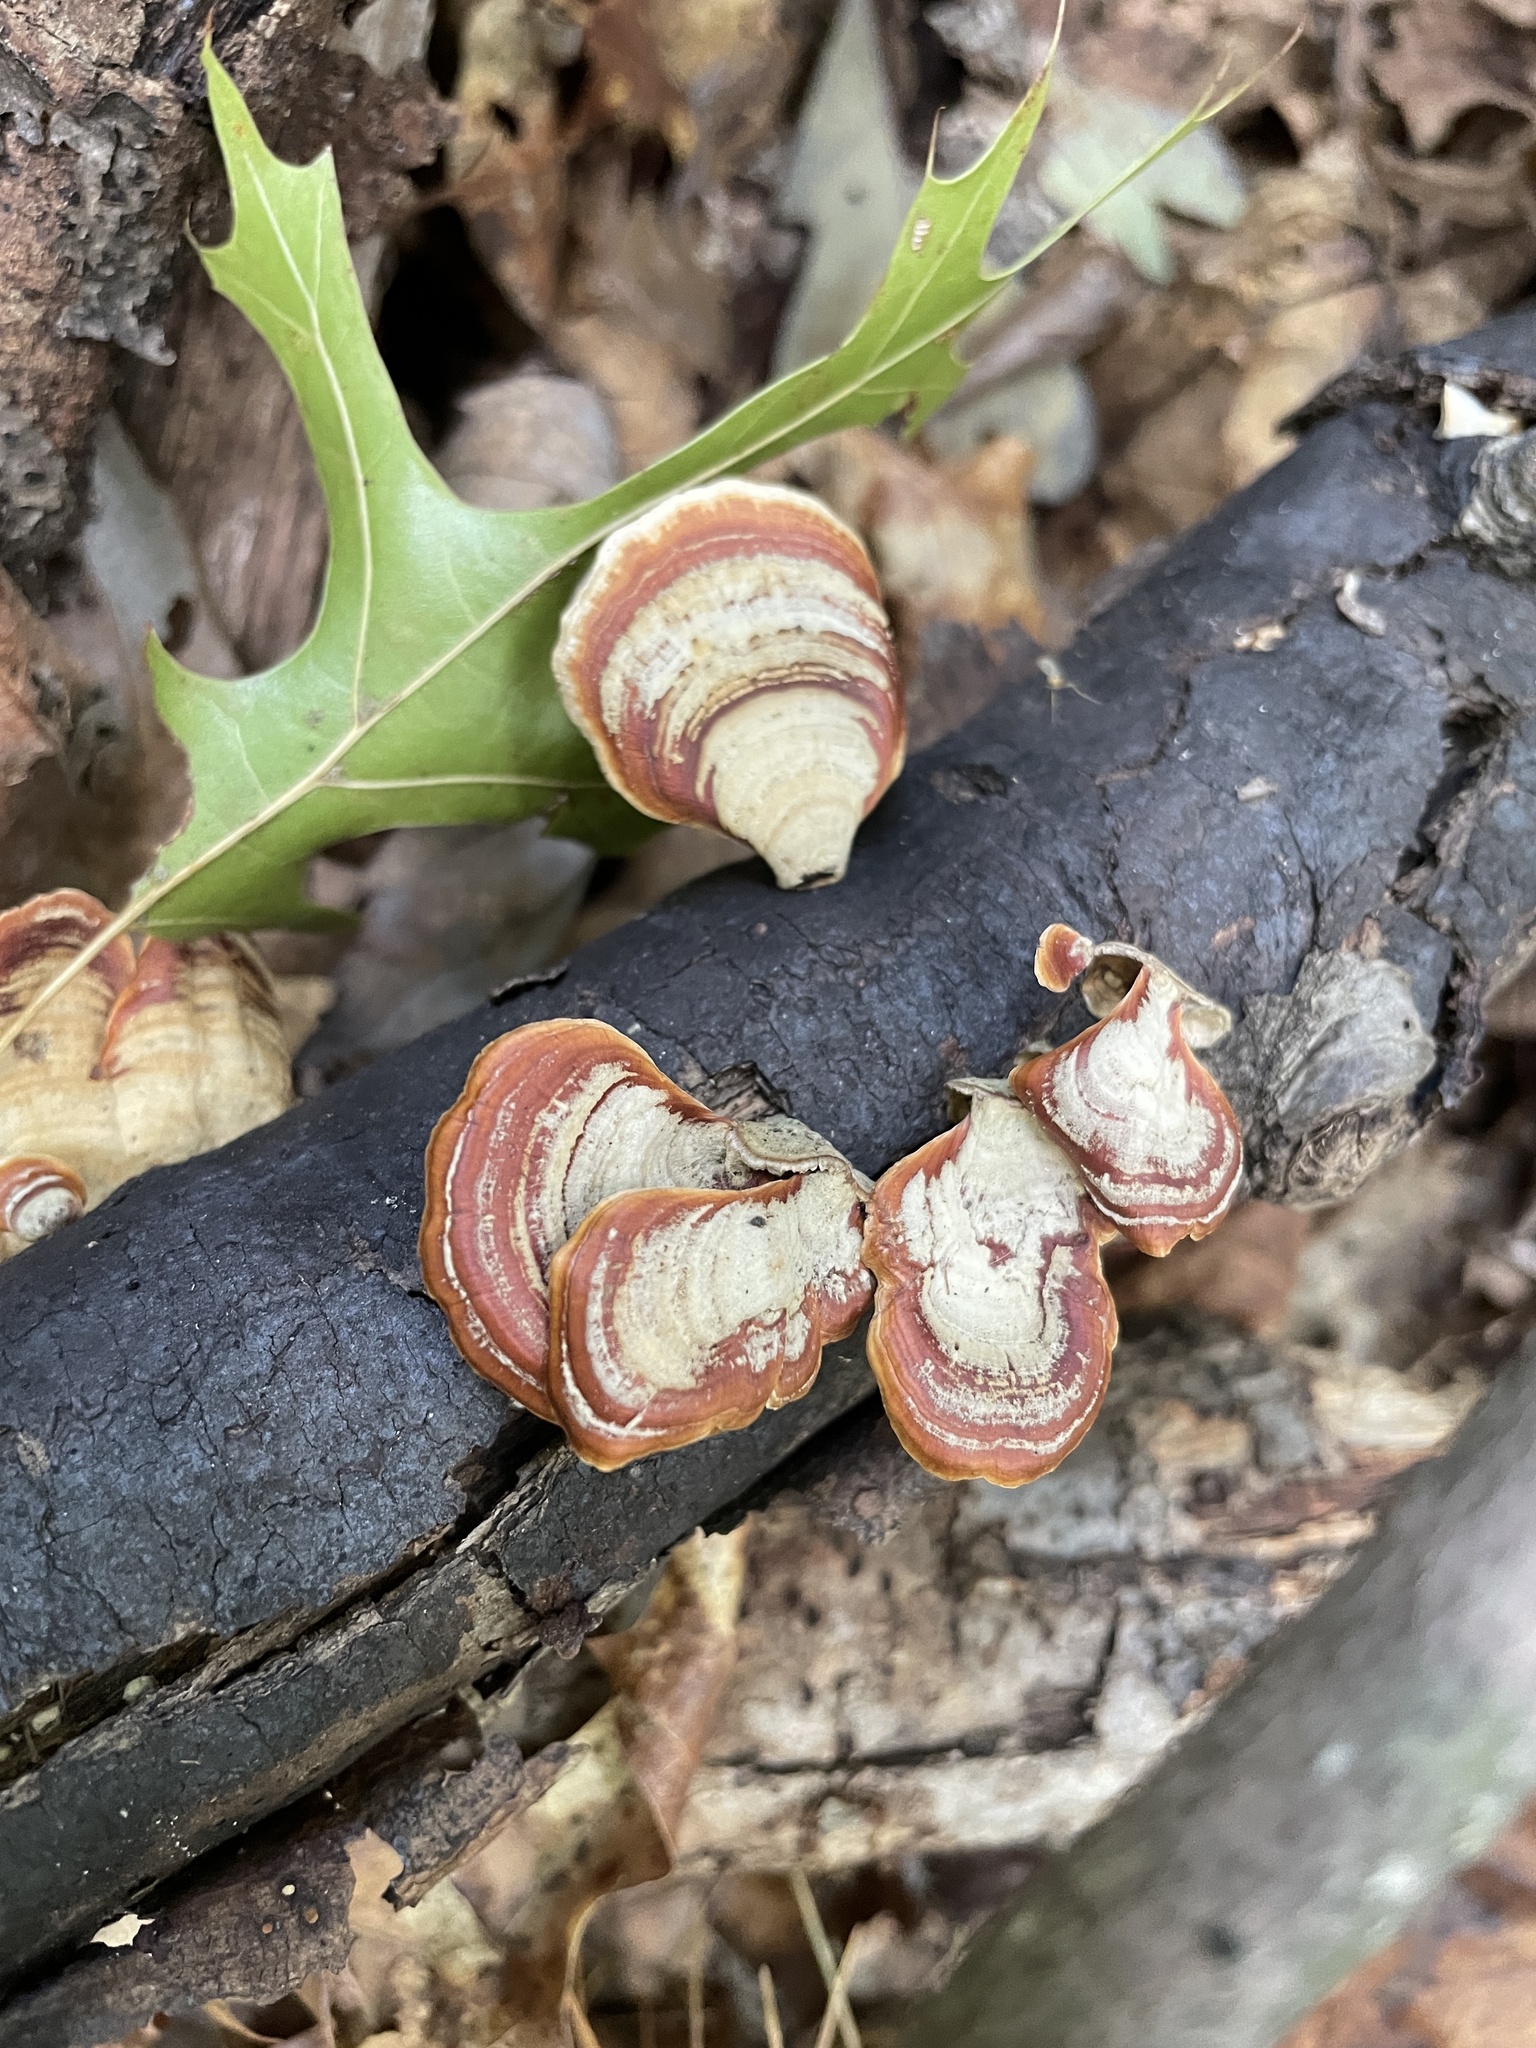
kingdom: Fungi
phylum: Basidiomycota
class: Agaricomycetes
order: Russulales
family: Stereaceae
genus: Stereum
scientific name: Stereum lobatum
